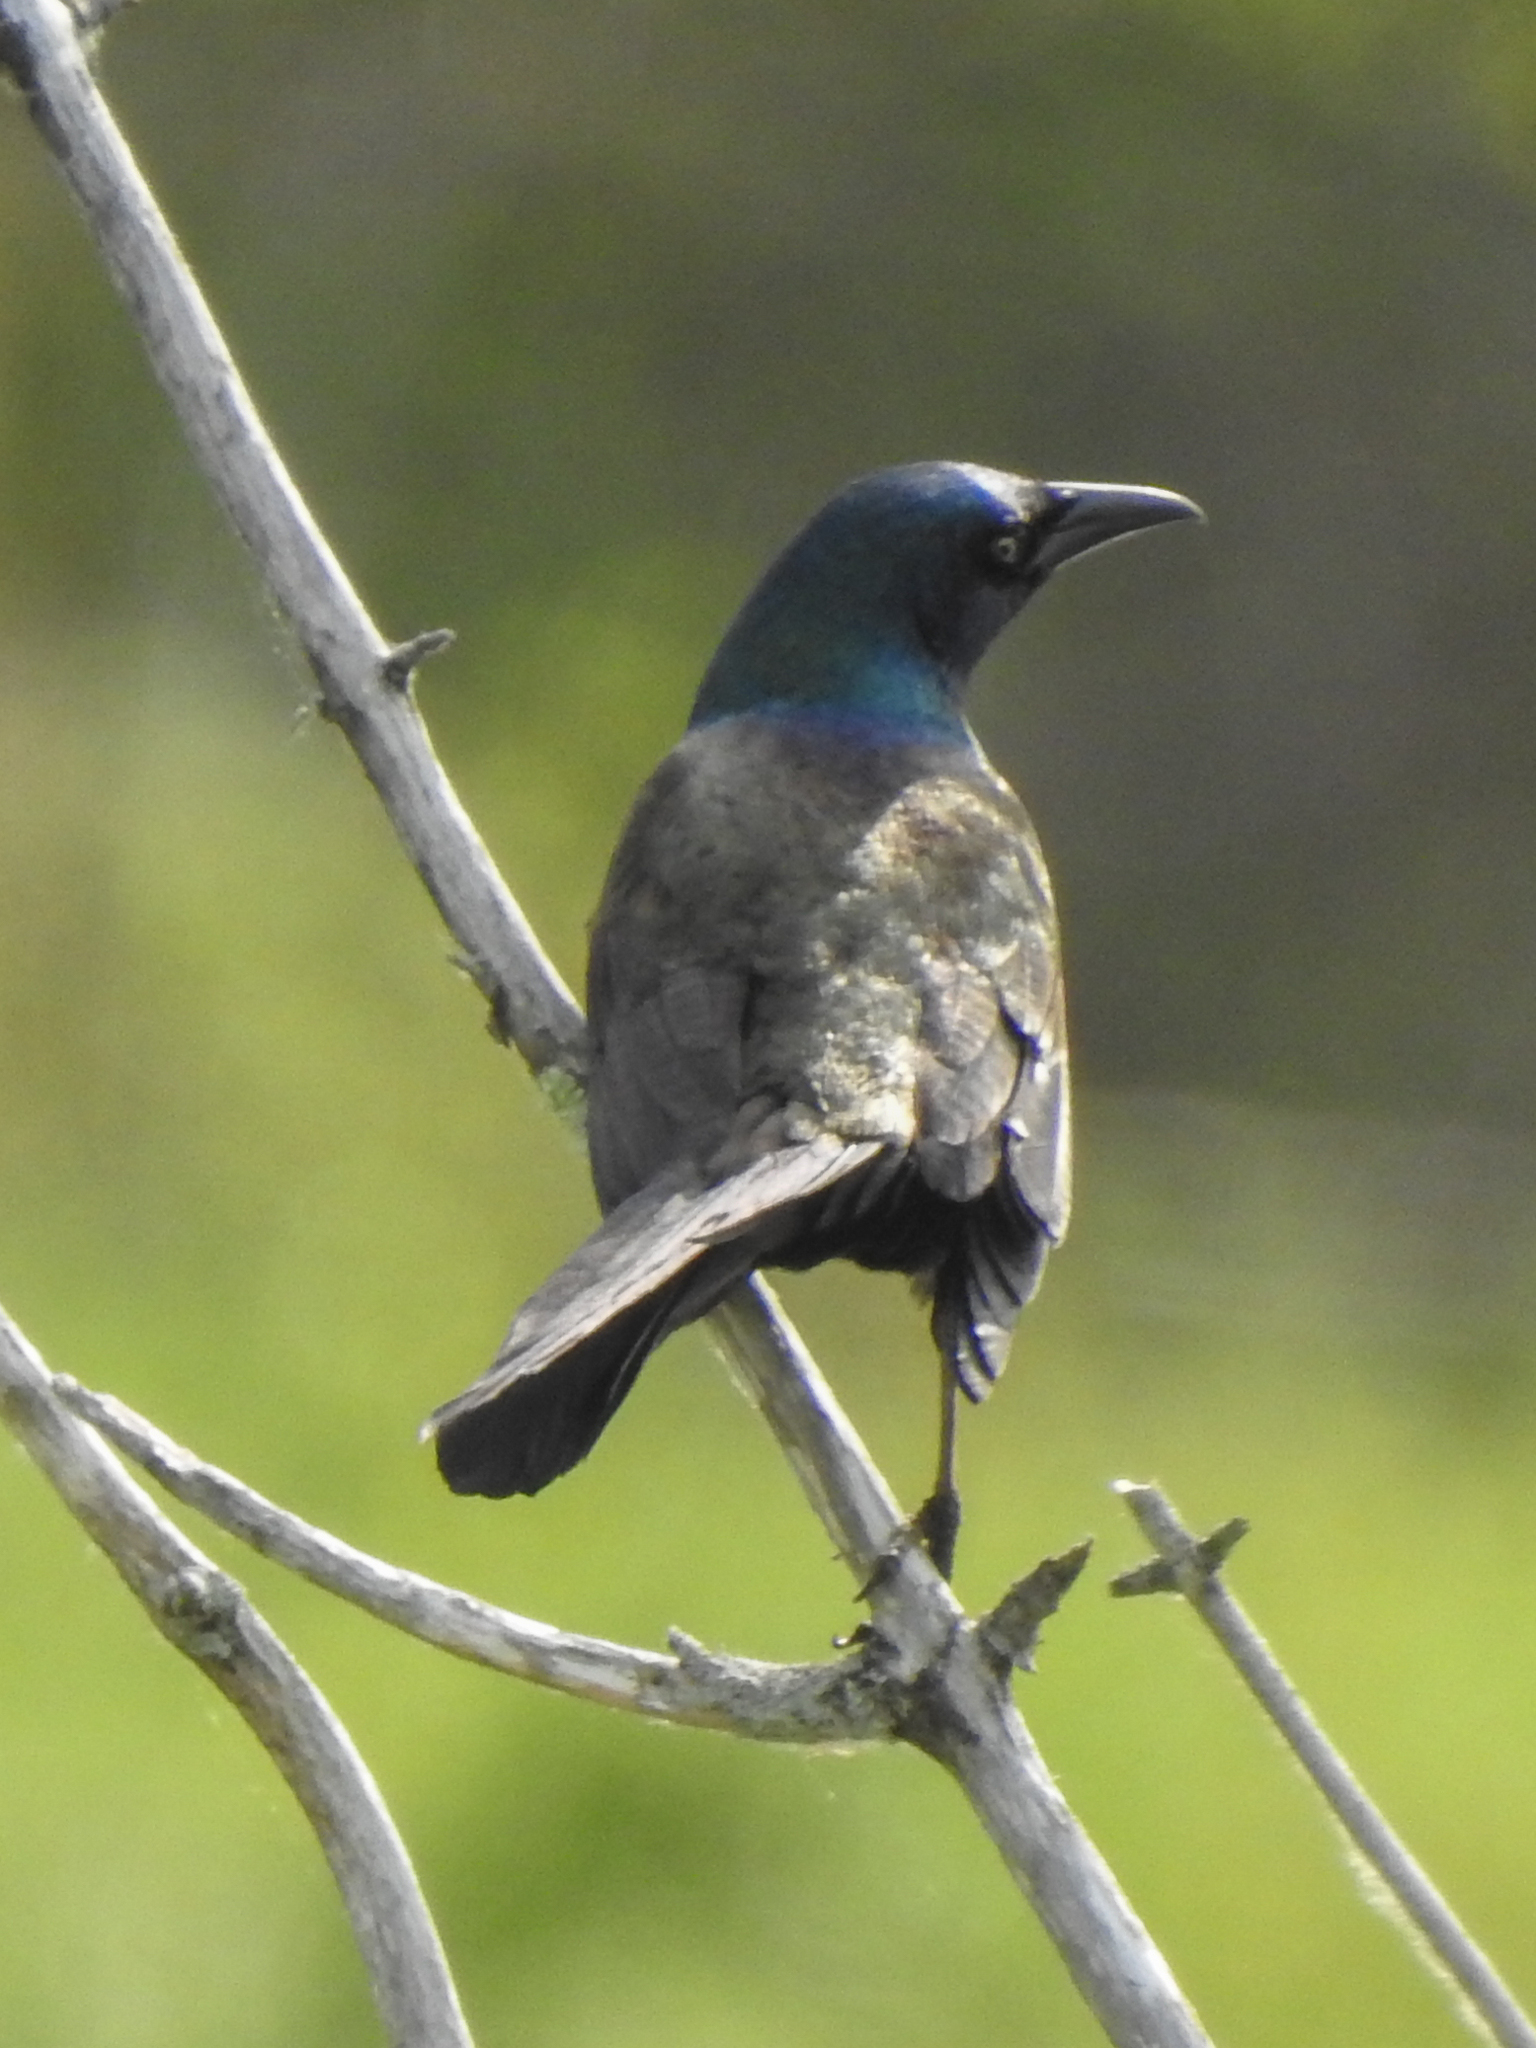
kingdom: Animalia
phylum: Chordata
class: Aves
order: Passeriformes
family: Icteridae
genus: Quiscalus
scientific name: Quiscalus quiscula
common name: Common grackle
